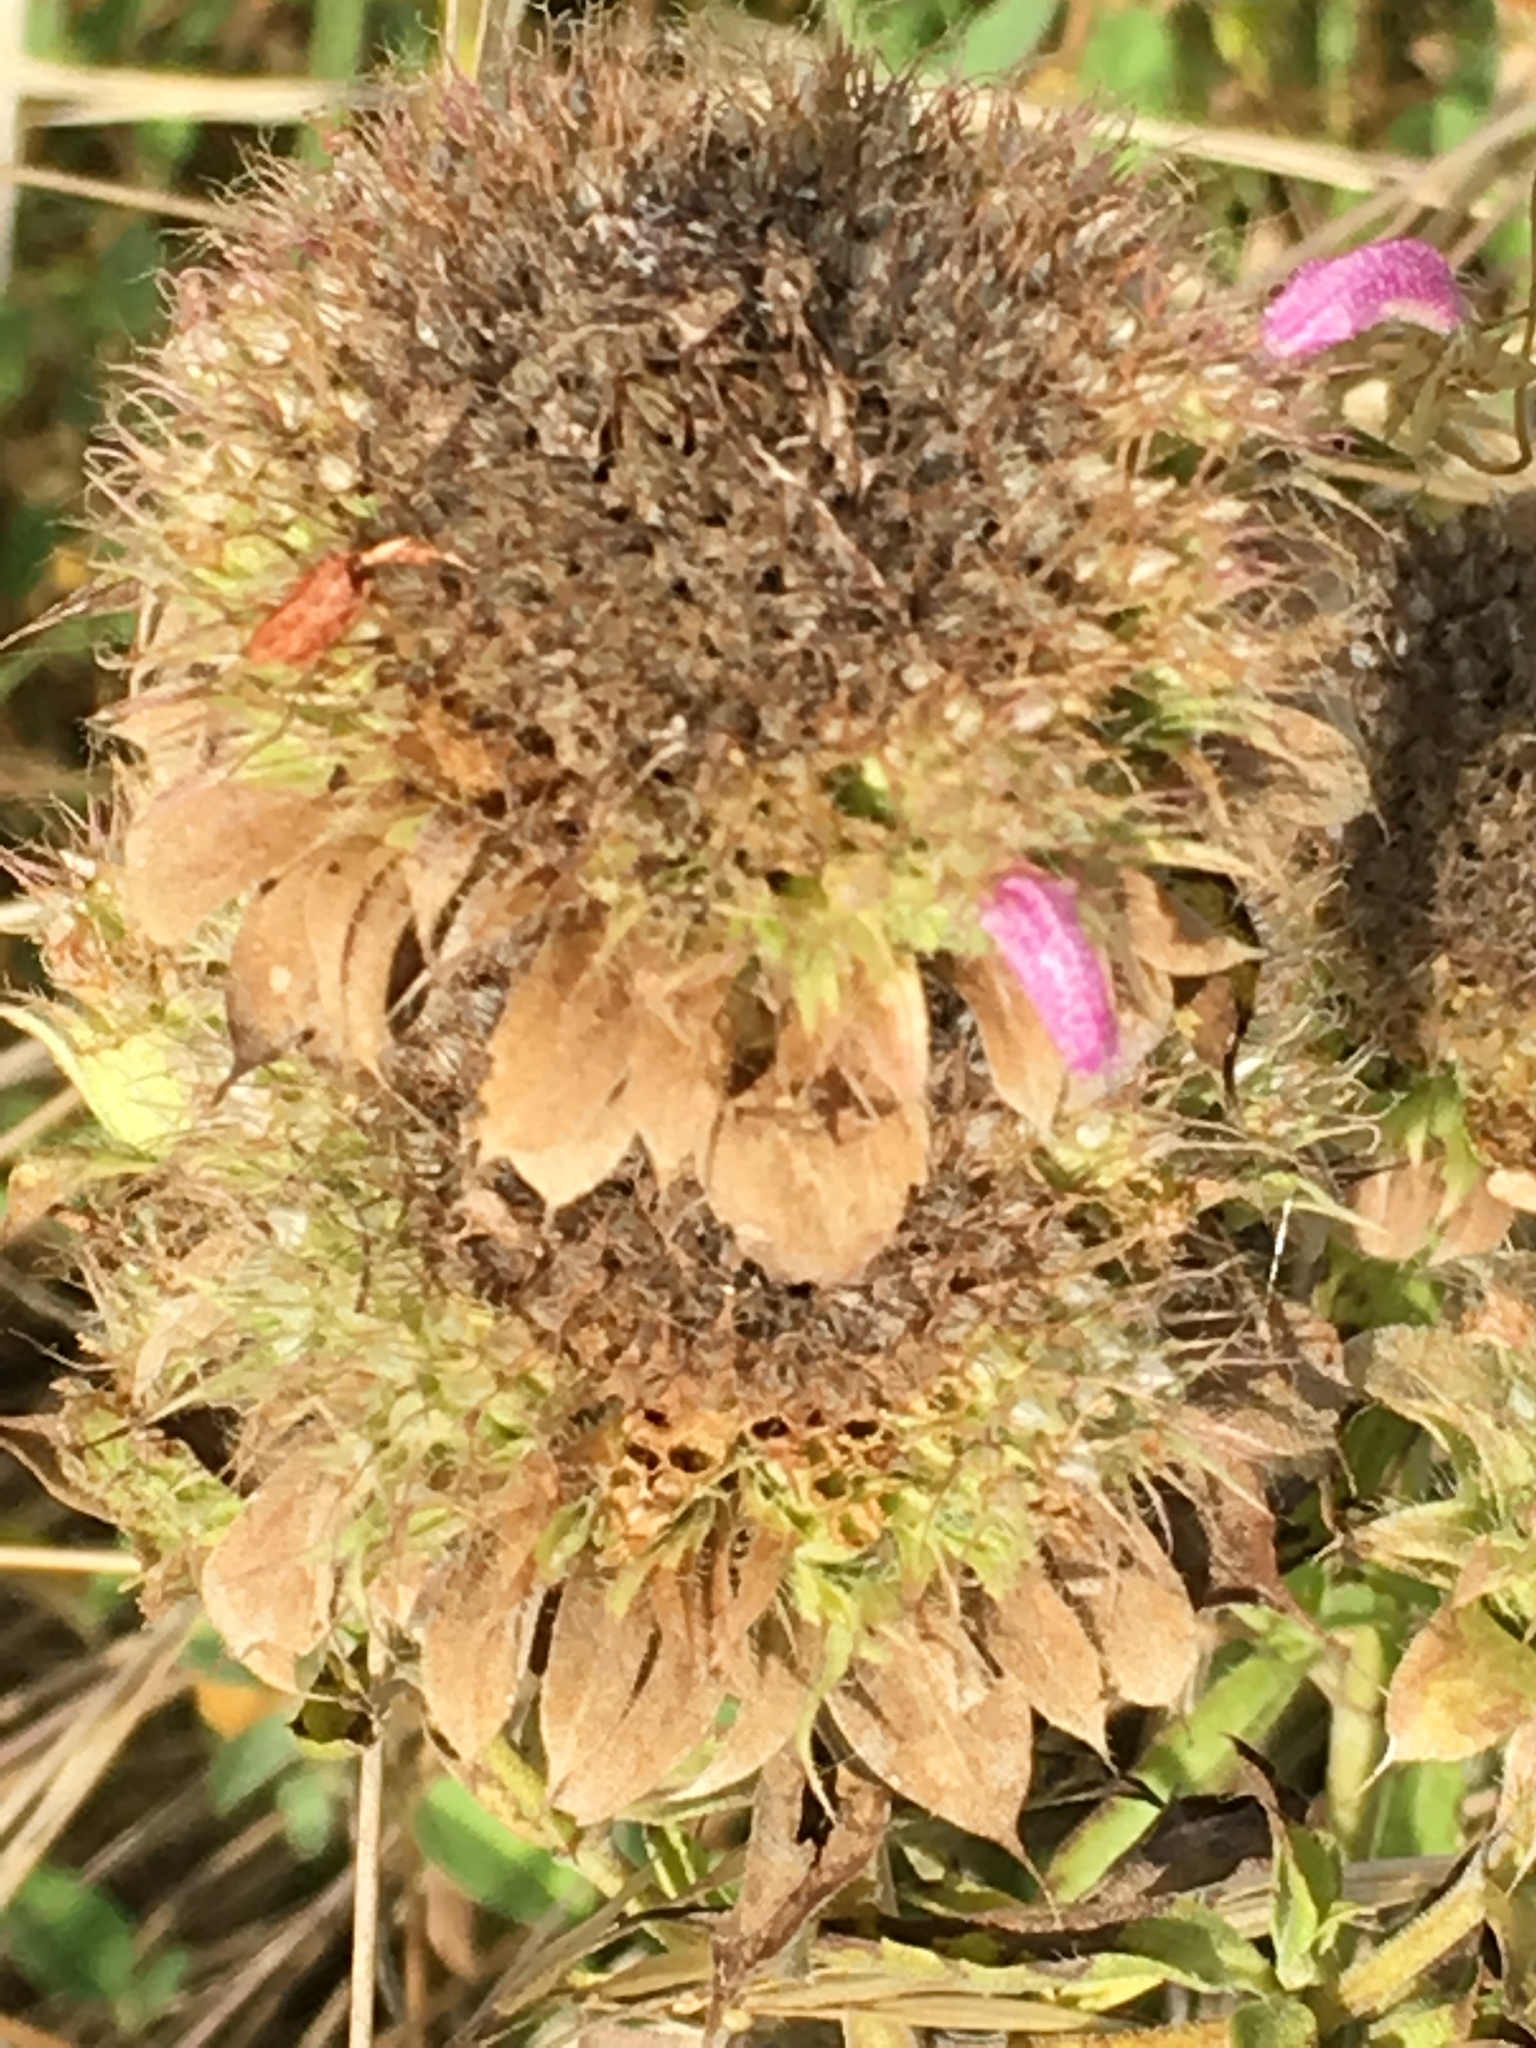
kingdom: Plantae
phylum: Tracheophyta
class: Magnoliopsida
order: Lamiales
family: Lamiaceae
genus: Monarda
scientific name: Monarda citriodora
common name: Lemon beebalm
